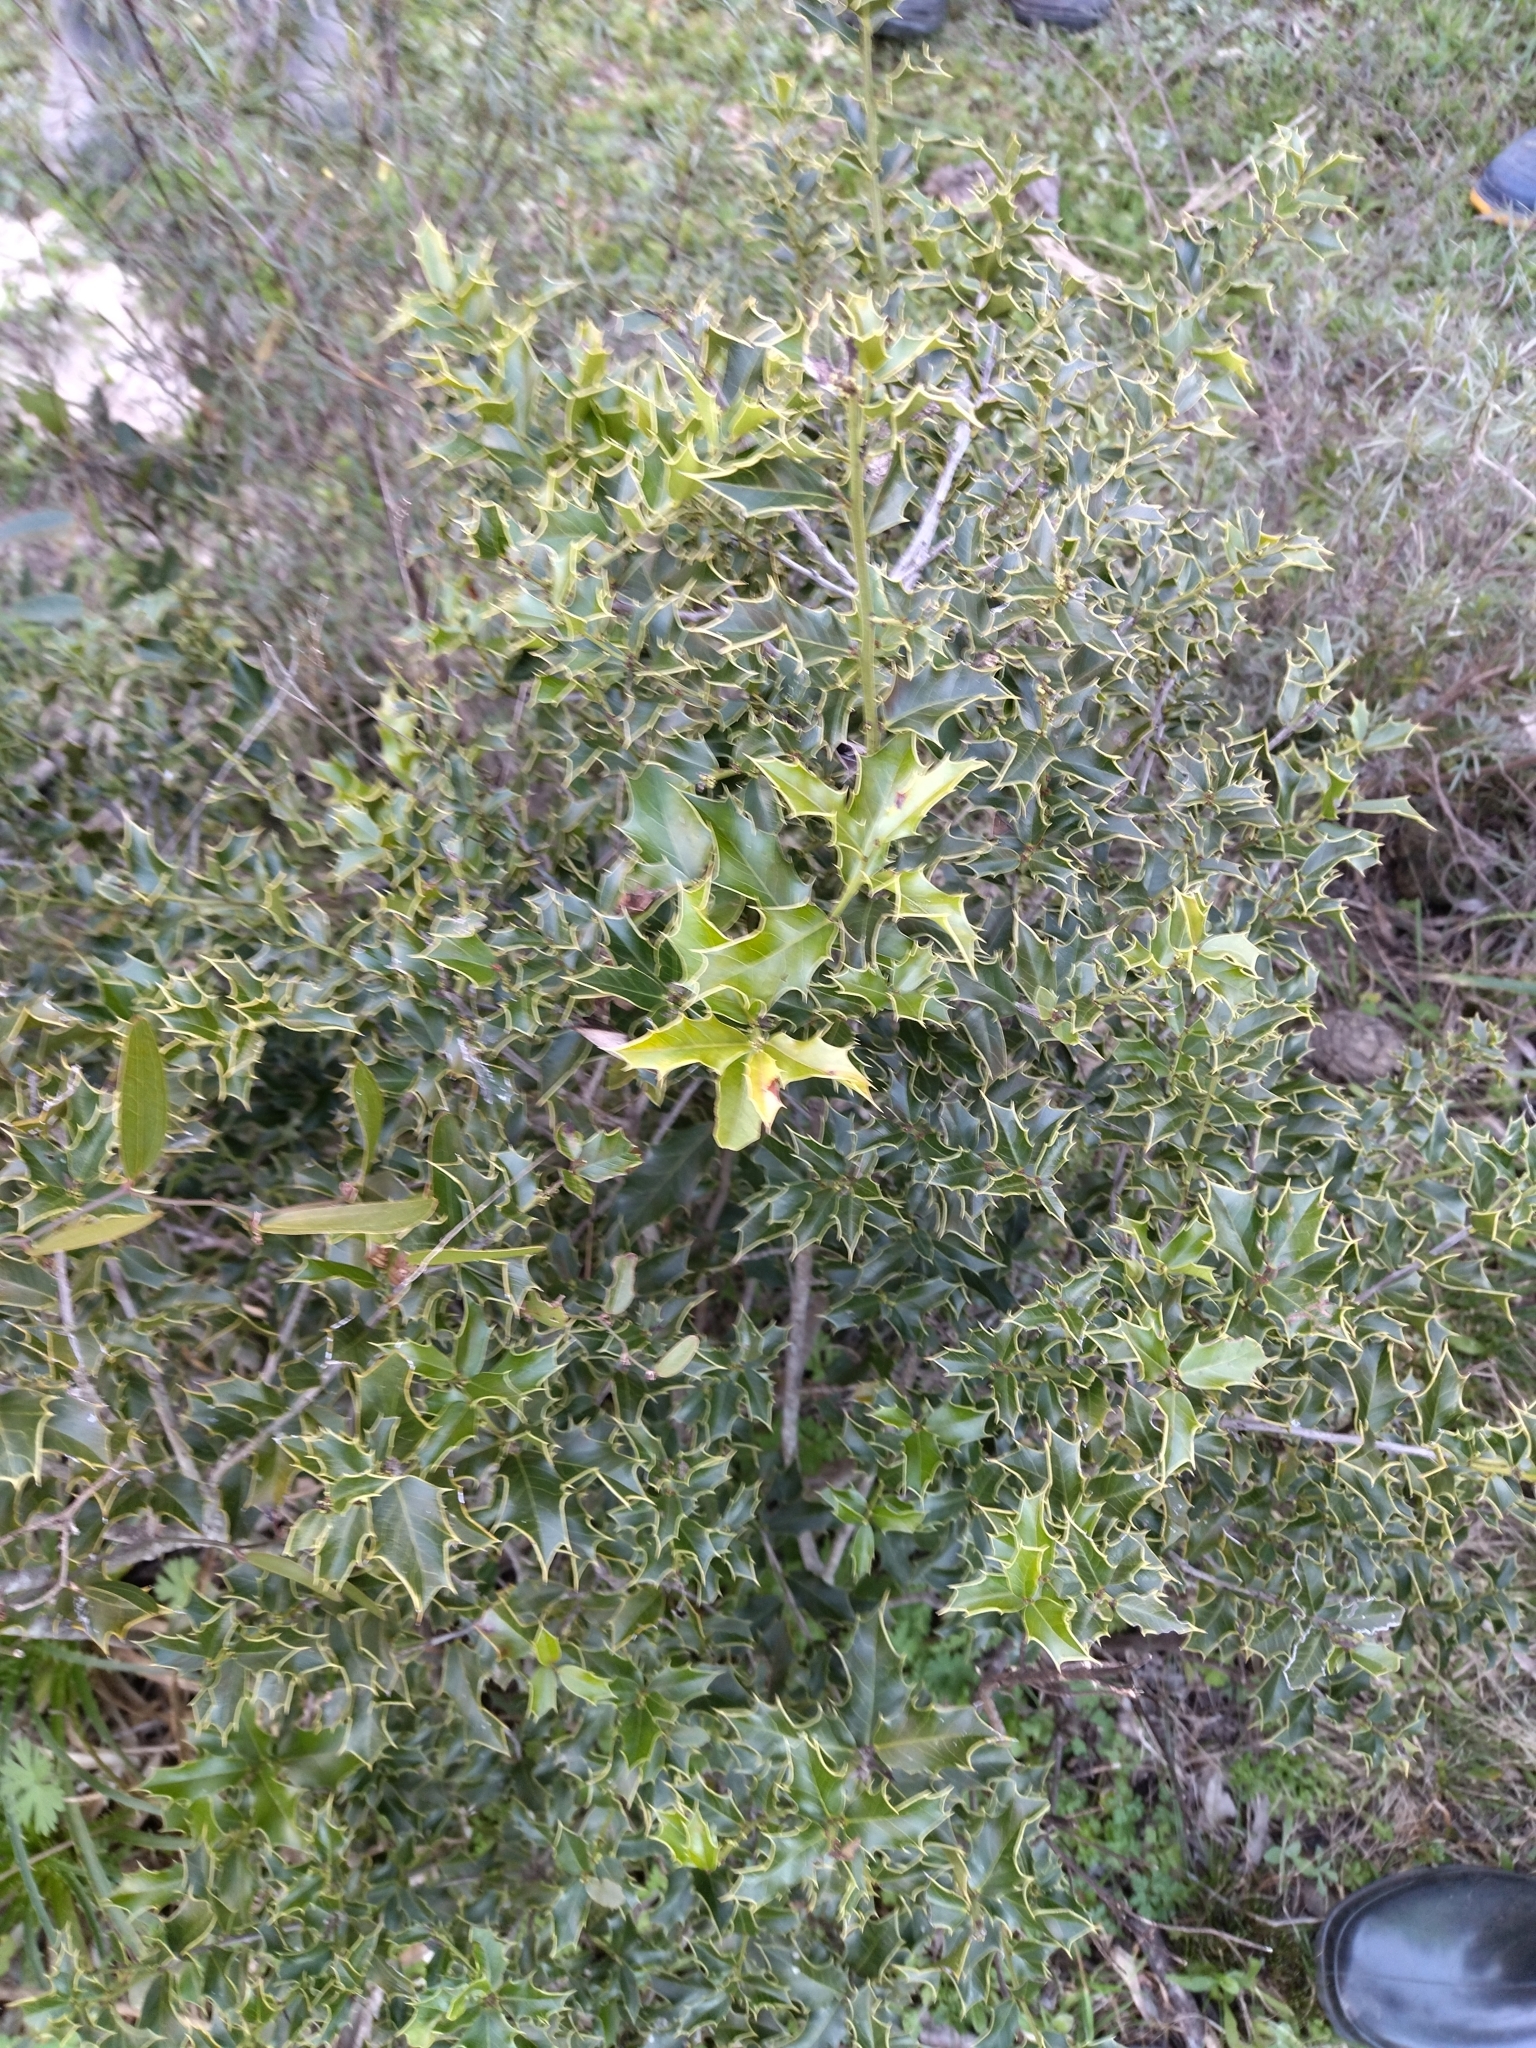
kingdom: Plantae
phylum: Tracheophyta
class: Magnoliopsida
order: Celastrales
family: Celastraceae
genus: Monteverdia
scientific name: Monteverdia
